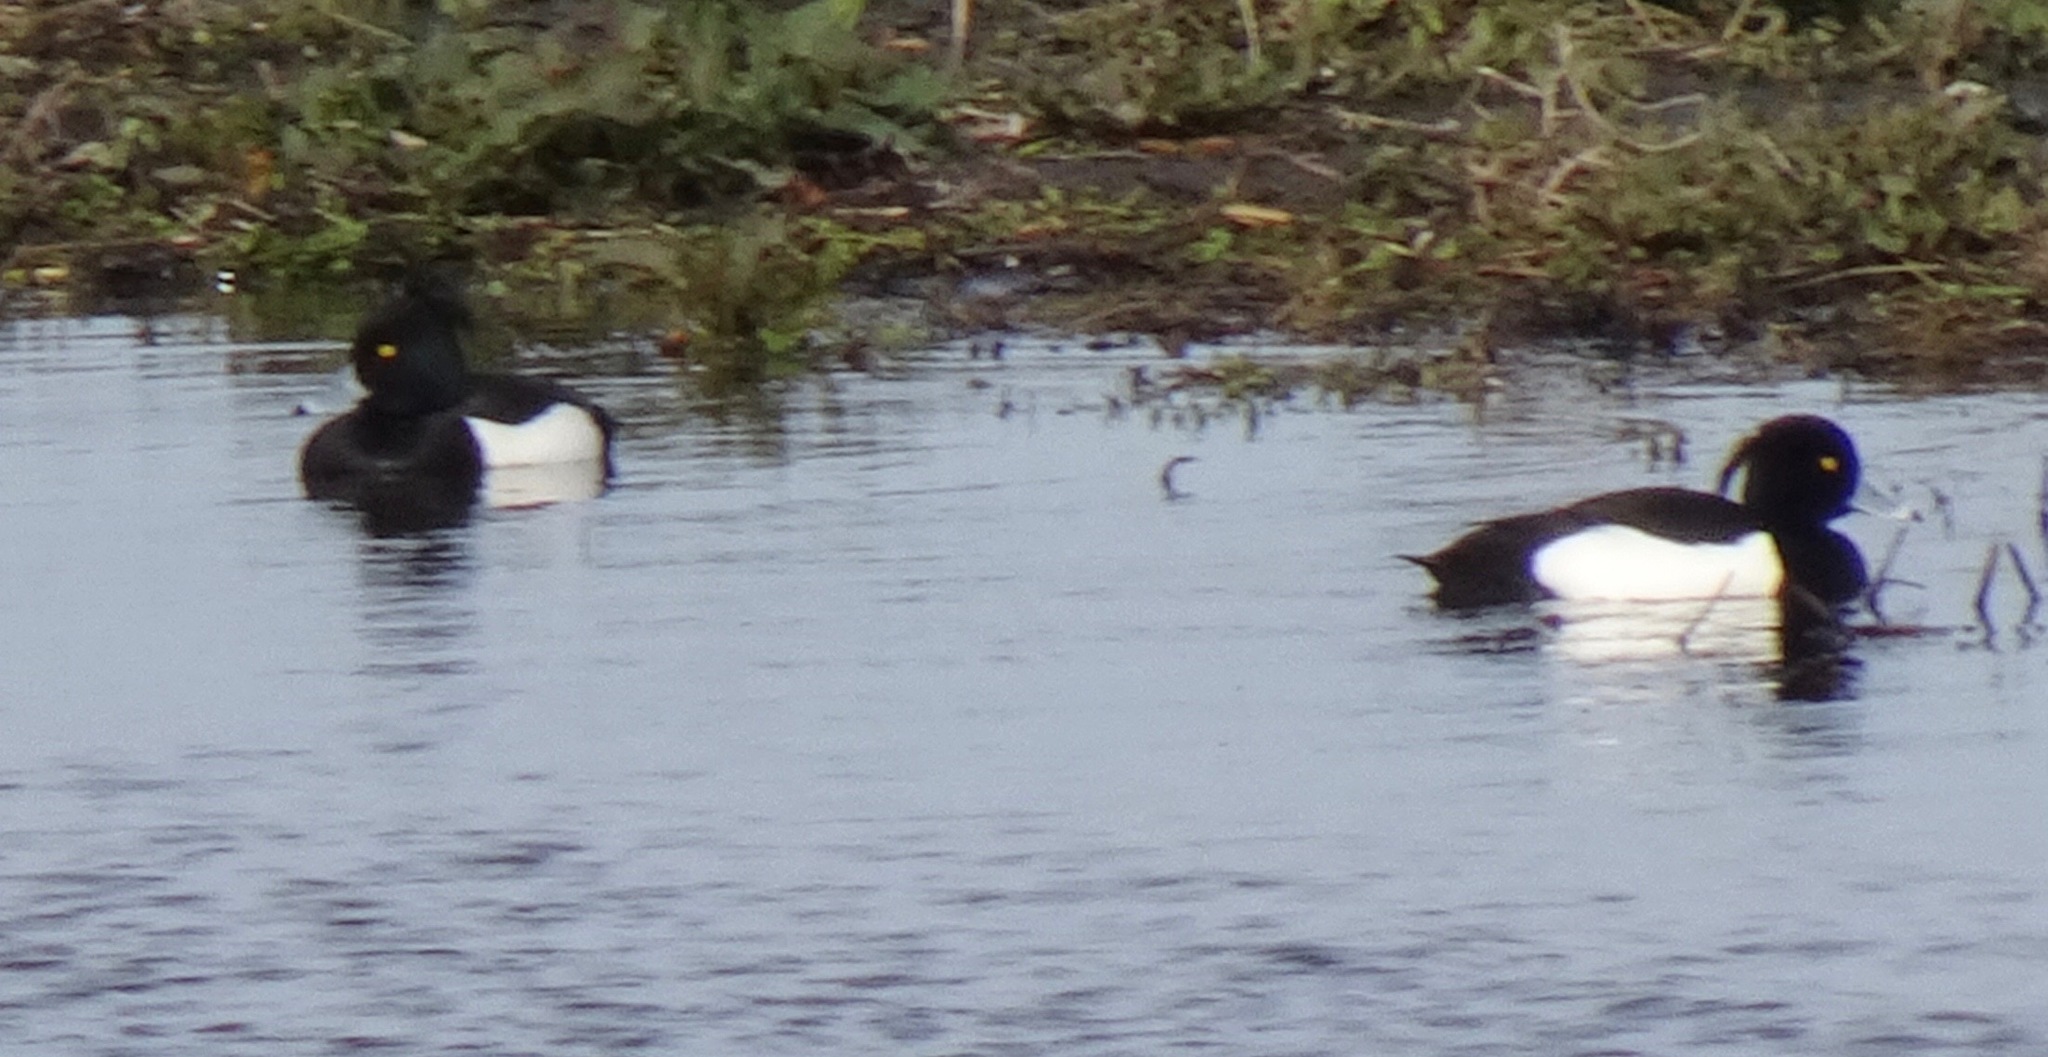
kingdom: Animalia
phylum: Chordata
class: Aves
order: Anseriformes
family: Anatidae
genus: Aythya
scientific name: Aythya fuligula
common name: Tufted duck
